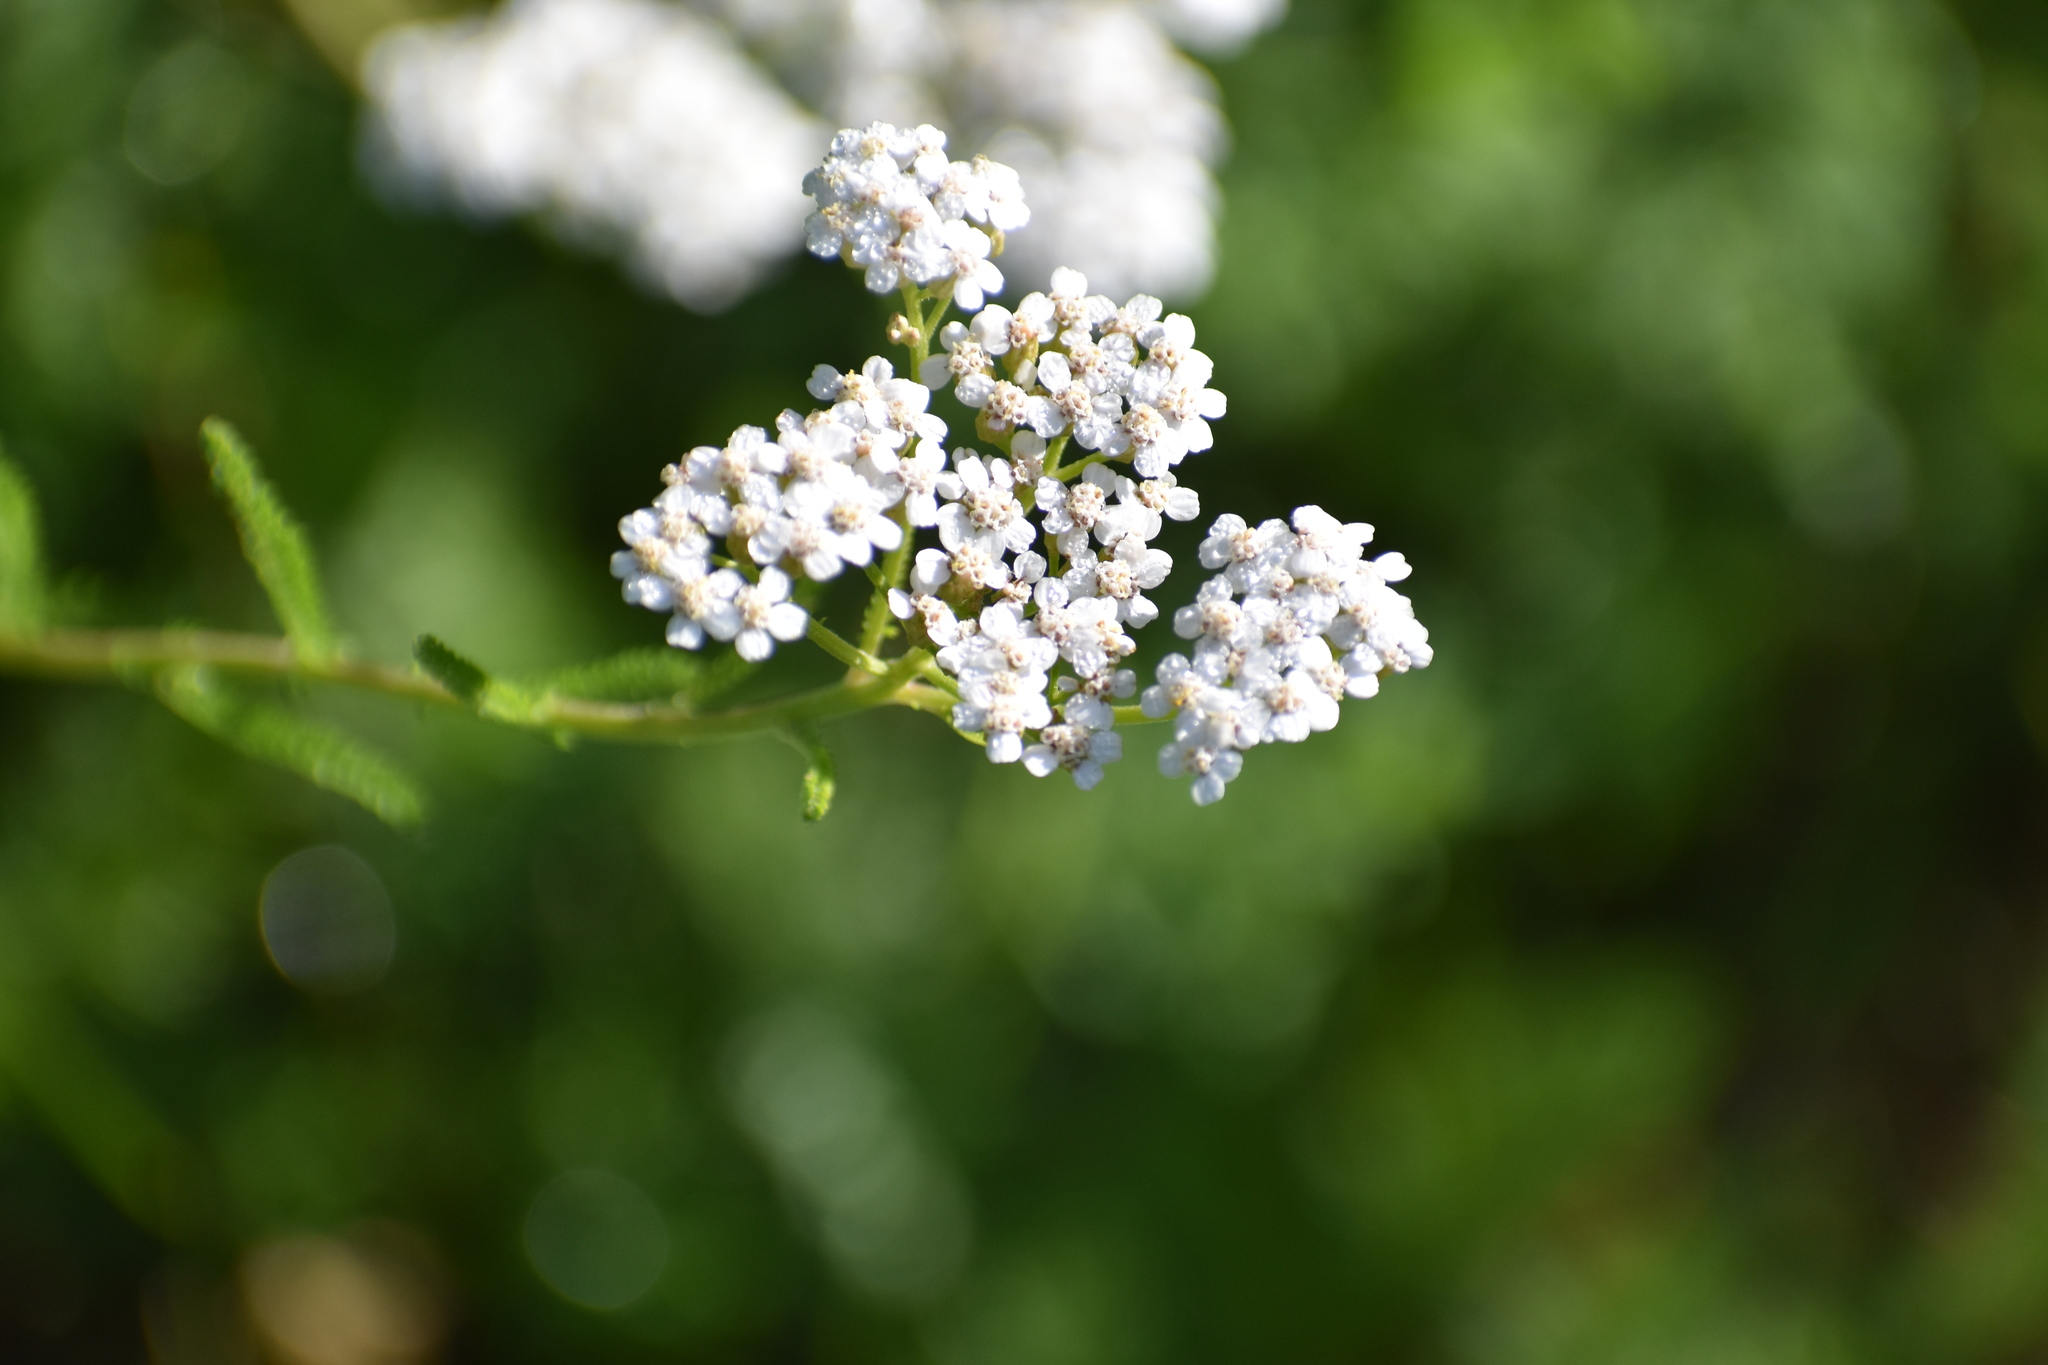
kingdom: Plantae
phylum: Tracheophyta
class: Magnoliopsida
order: Asterales
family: Asteraceae
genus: Achillea
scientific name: Achillea millefolium
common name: Yarrow
